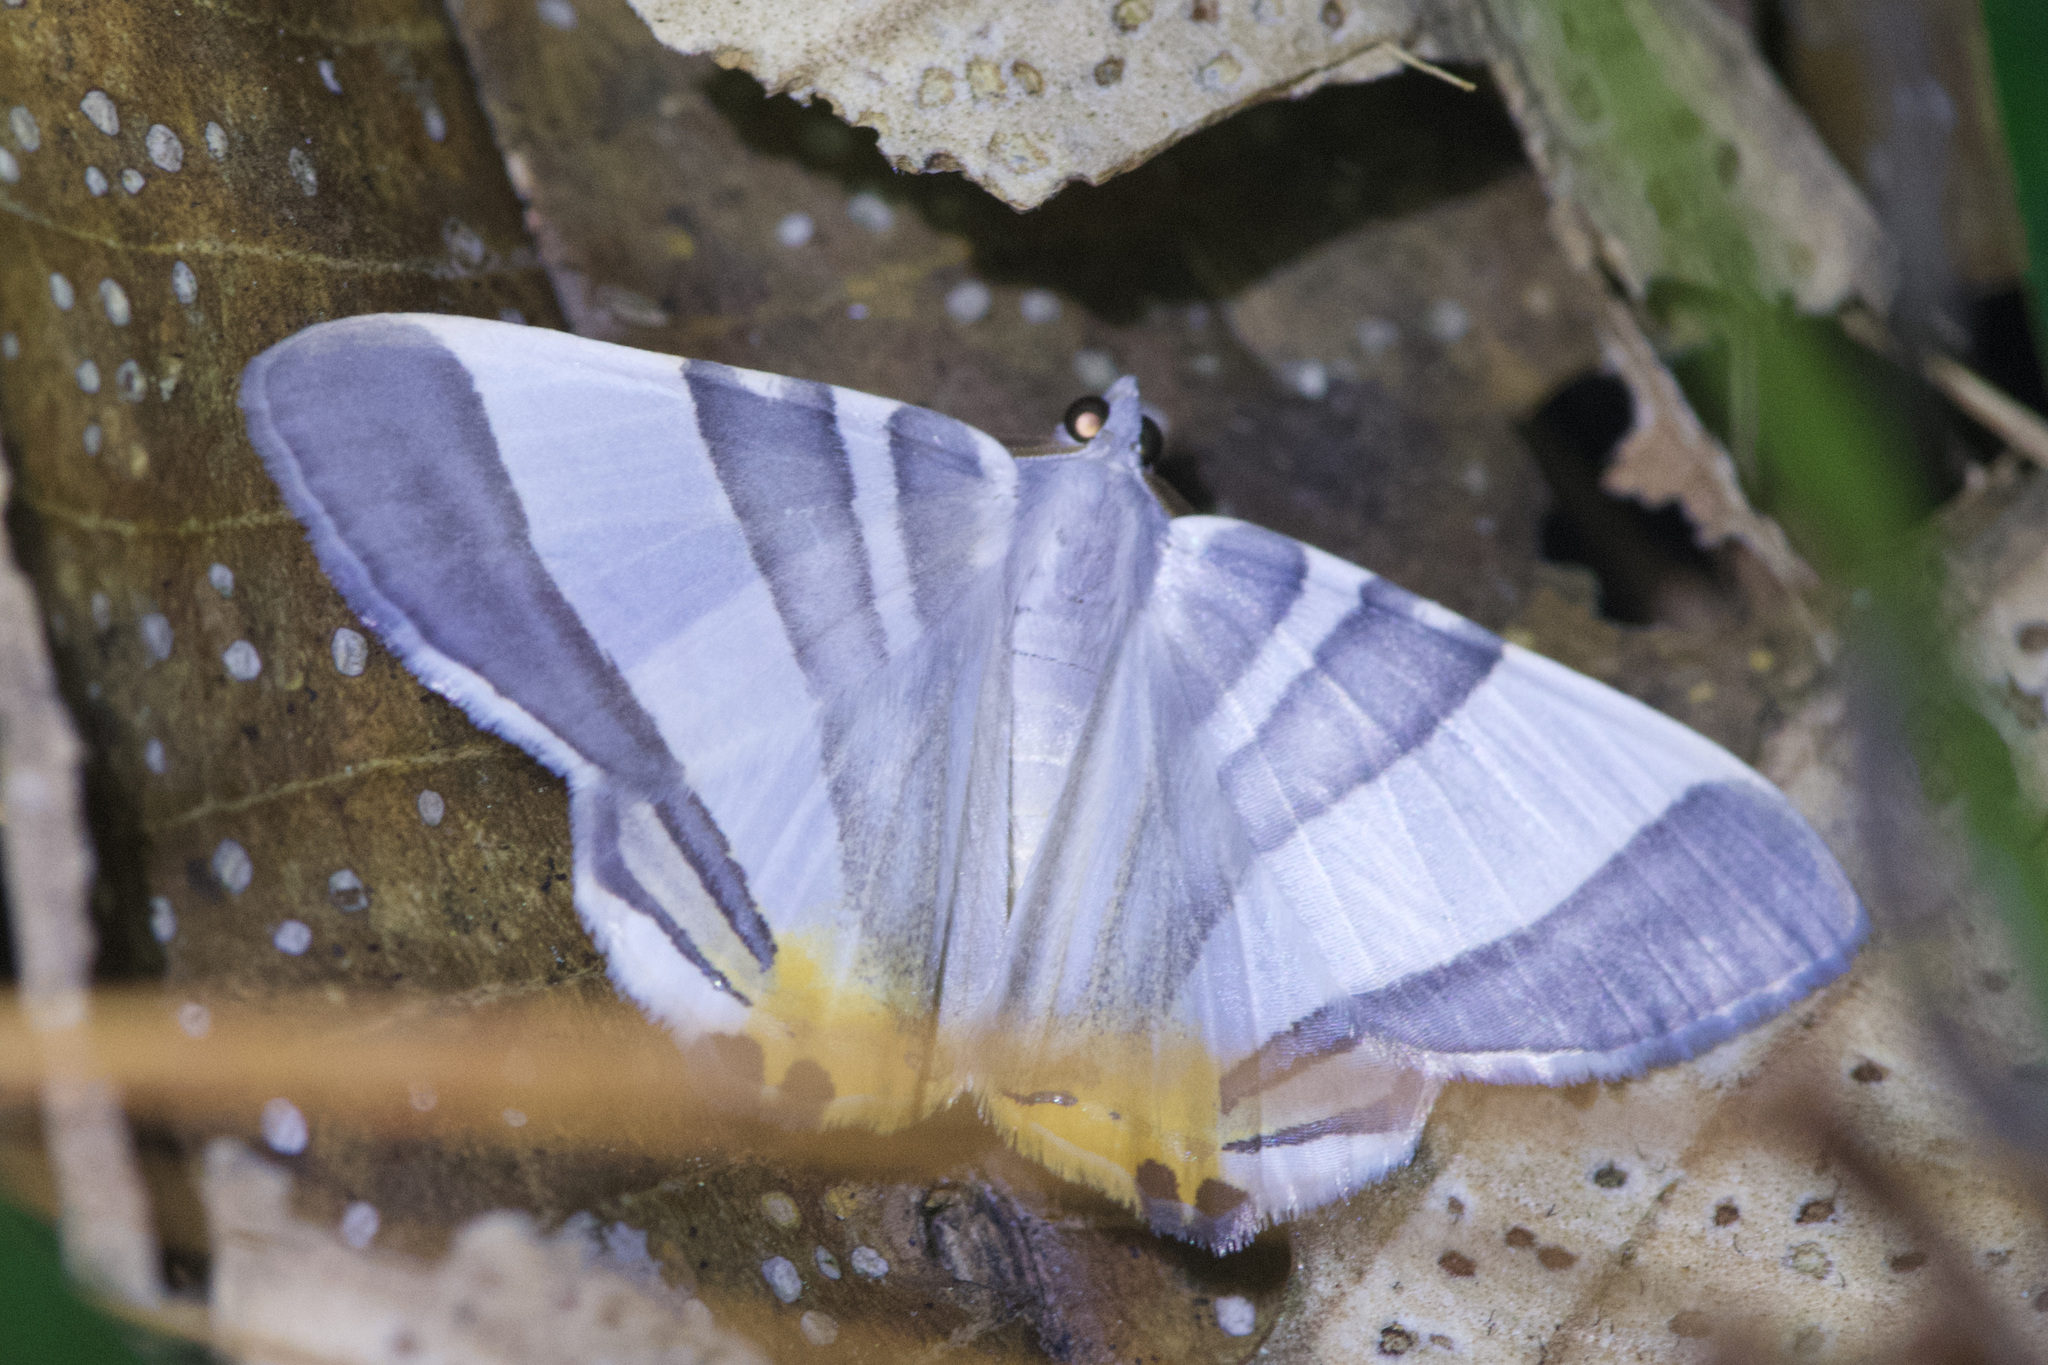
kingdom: Animalia
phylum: Arthropoda
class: Insecta
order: Lepidoptera
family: Geometridae
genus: Opisthoxia
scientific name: Opisthoxia miletia
